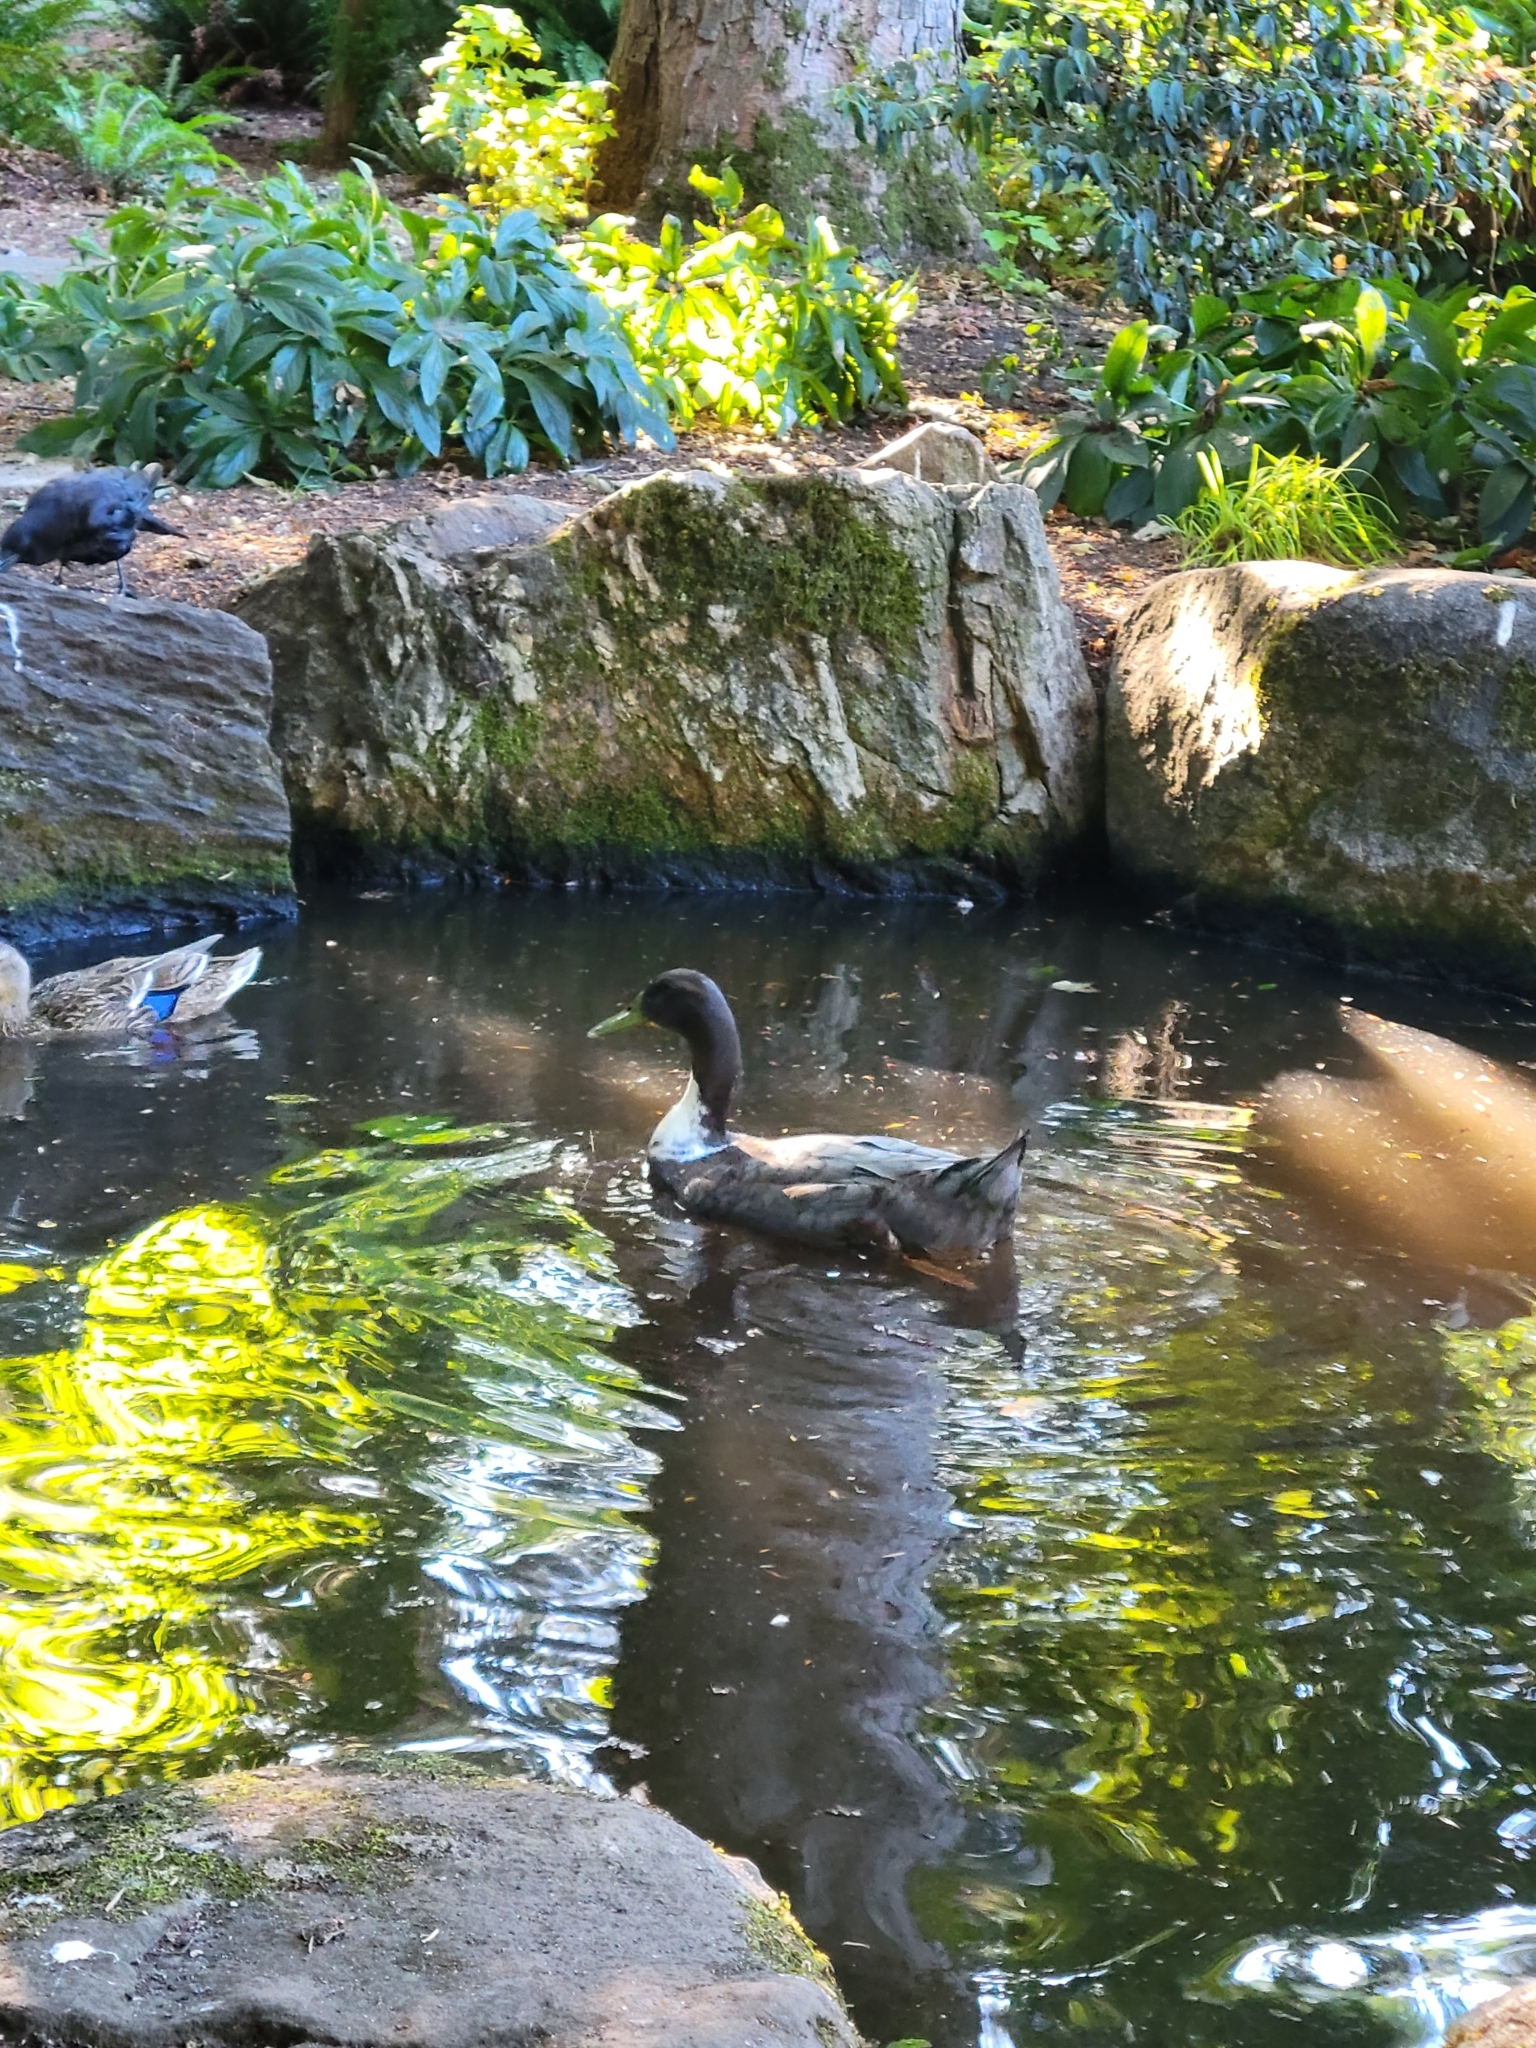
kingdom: Animalia
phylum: Chordata
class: Aves
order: Anseriformes
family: Anatidae
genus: Anas
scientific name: Anas platyrhynchos
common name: Mallard
